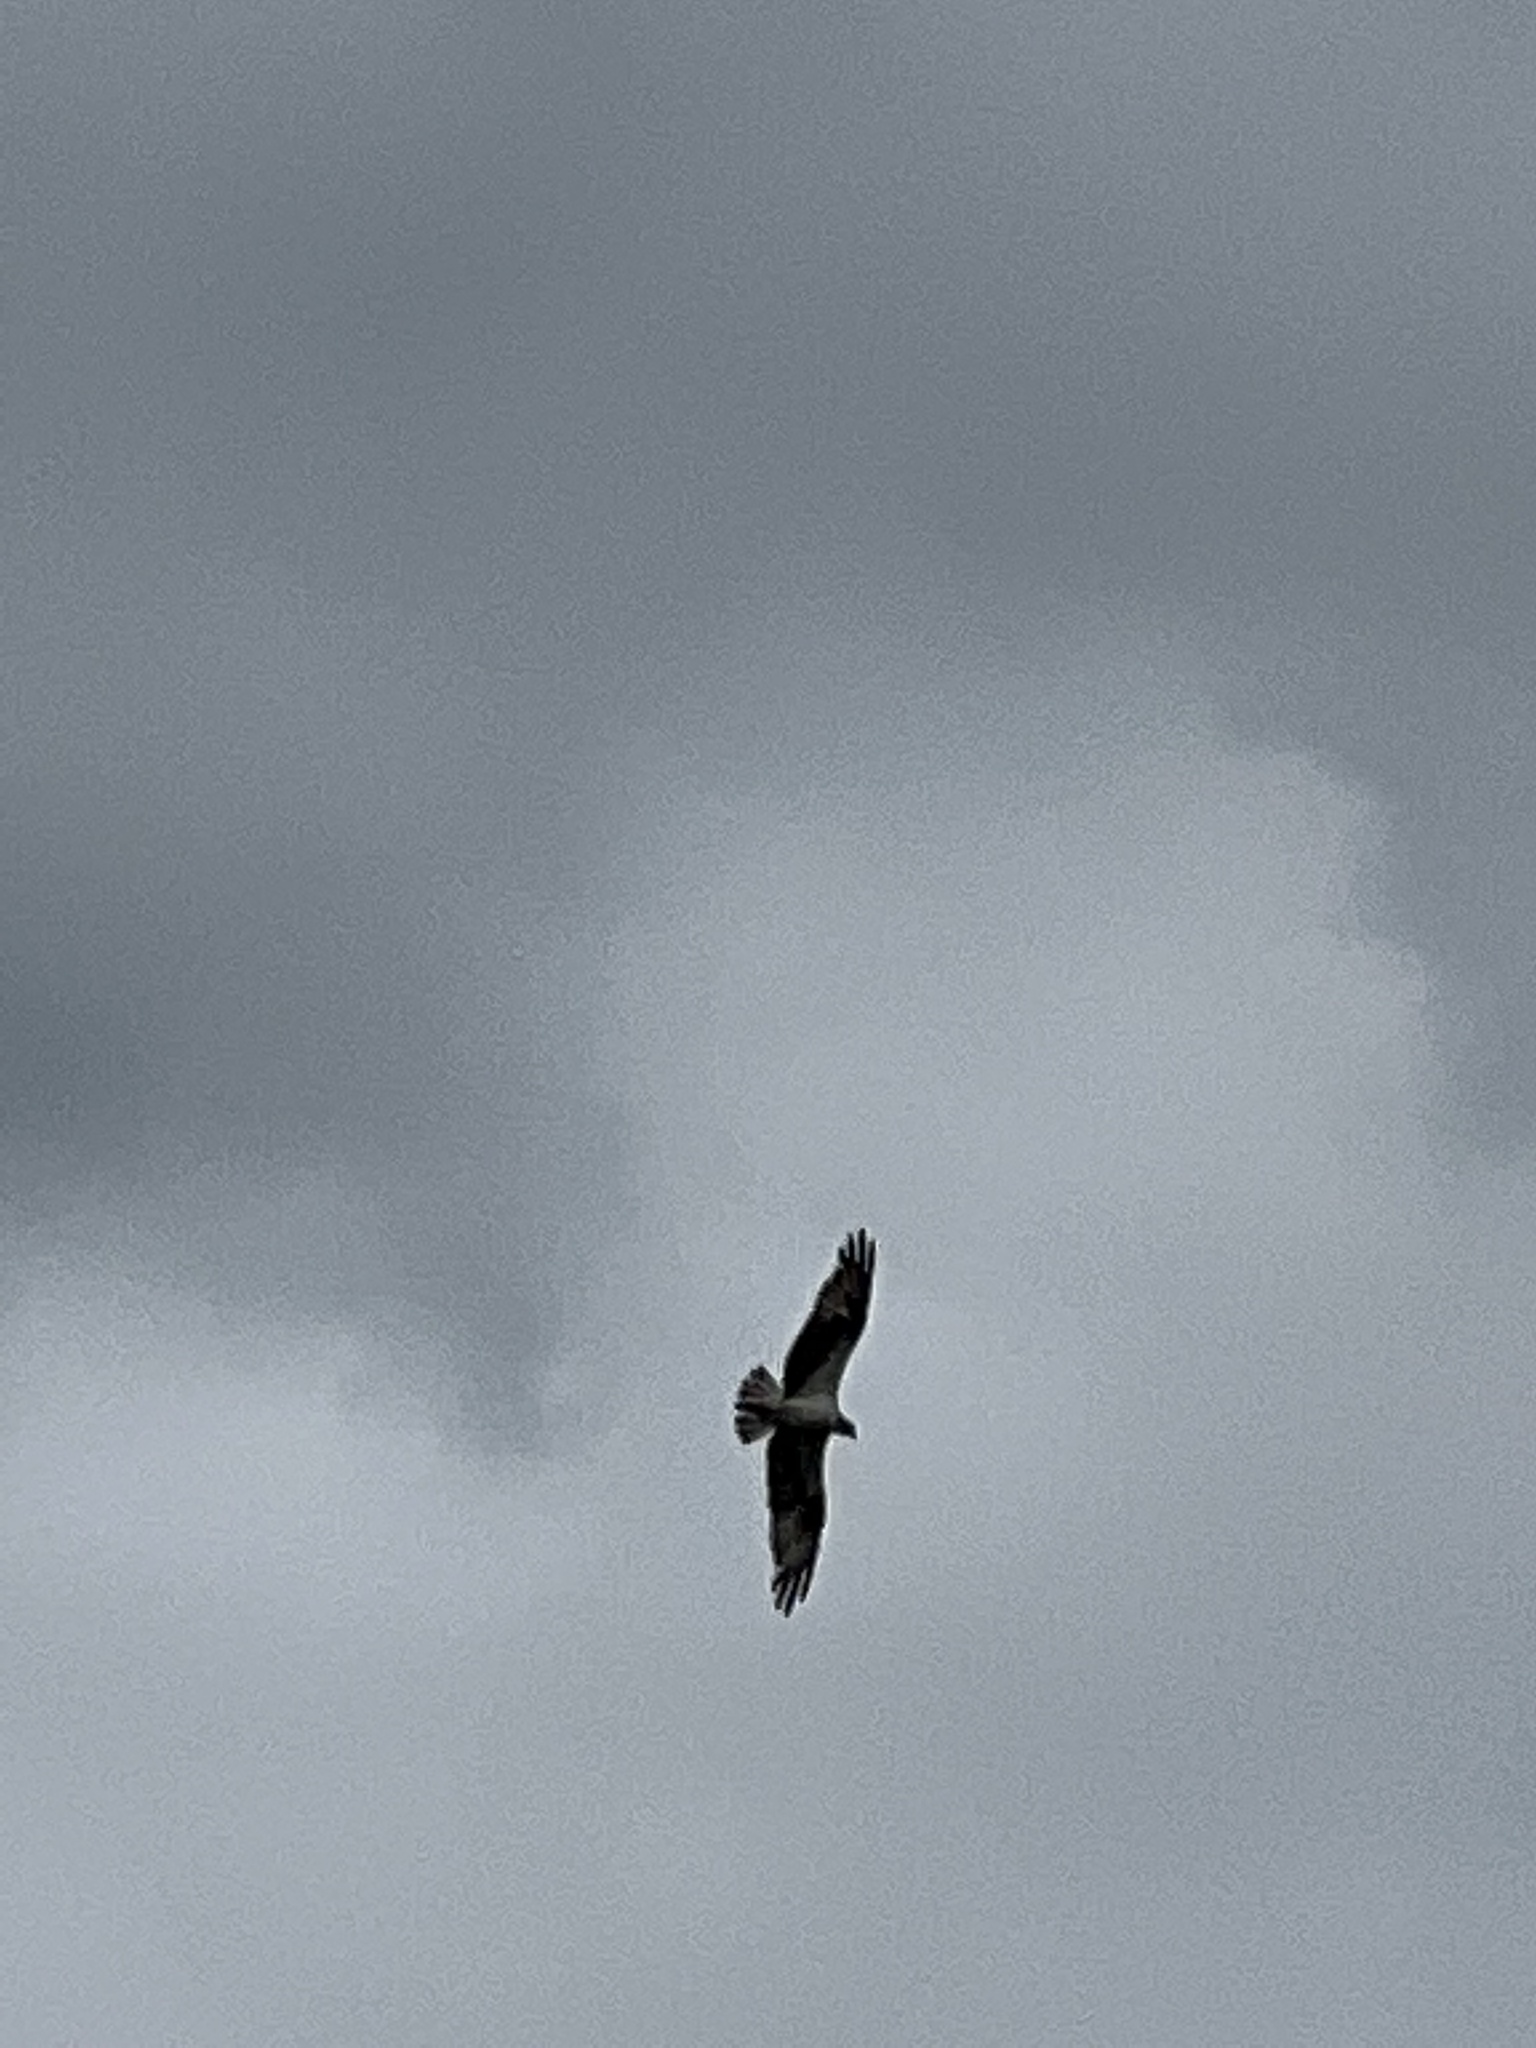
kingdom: Animalia
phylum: Chordata
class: Aves
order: Accipitriformes
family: Pandionidae
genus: Pandion
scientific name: Pandion haliaetus
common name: Osprey
